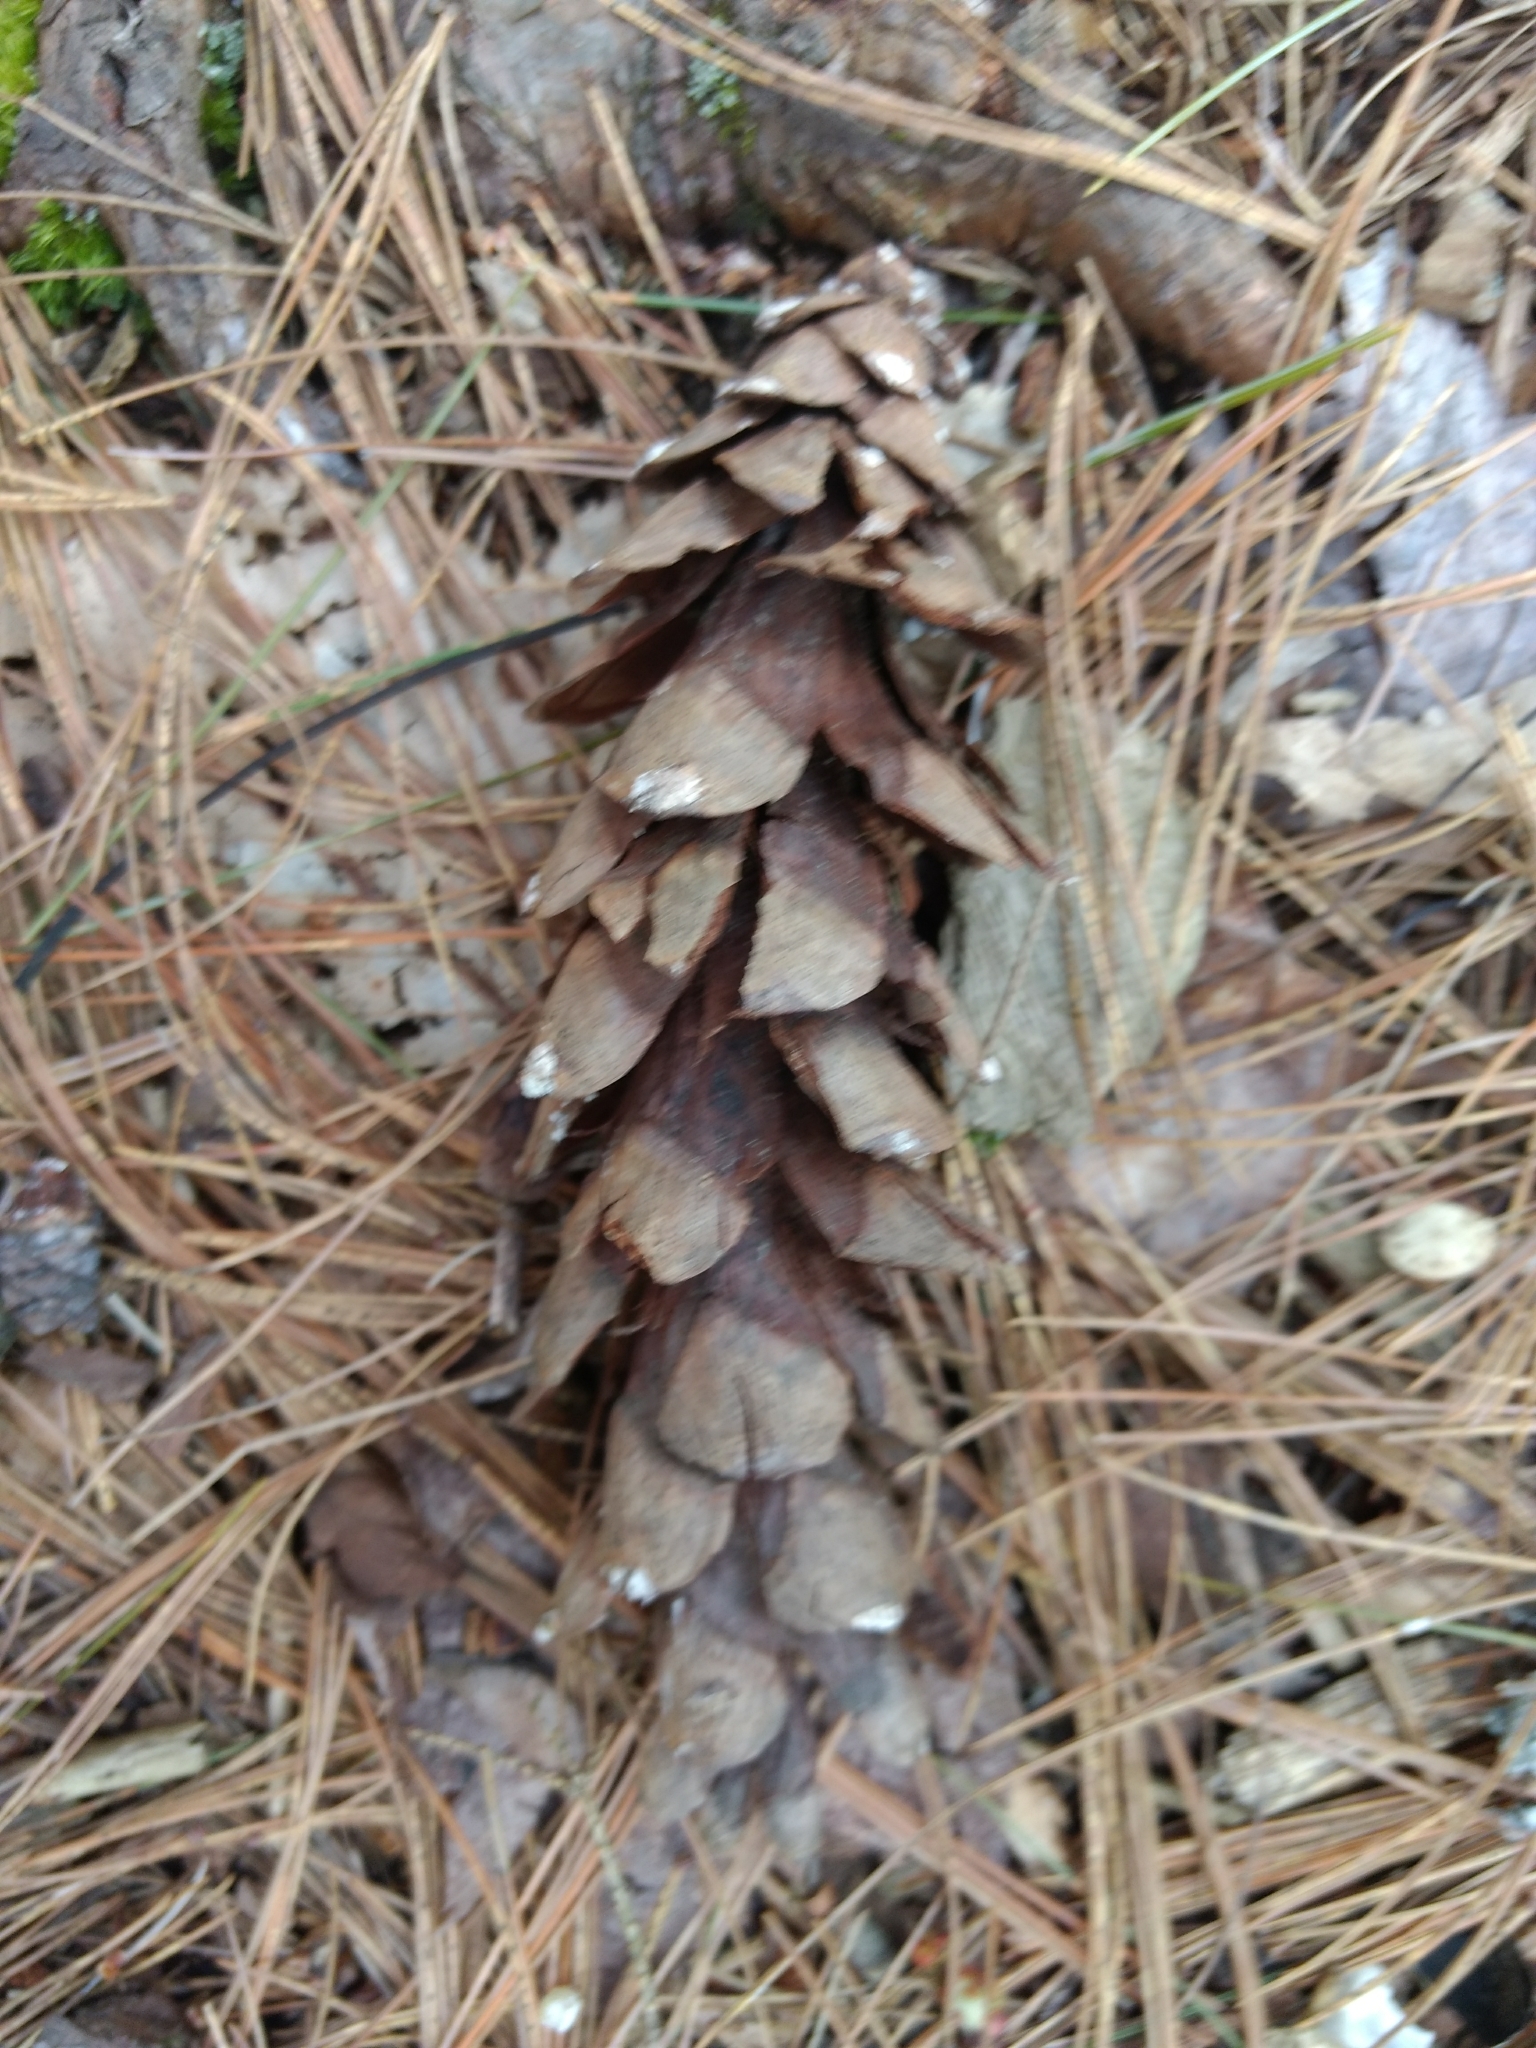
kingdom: Plantae
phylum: Tracheophyta
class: Pinopsida
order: Pinales
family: Pinaceae
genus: Pinus
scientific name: Pinus strobus
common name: Weymouth pine
